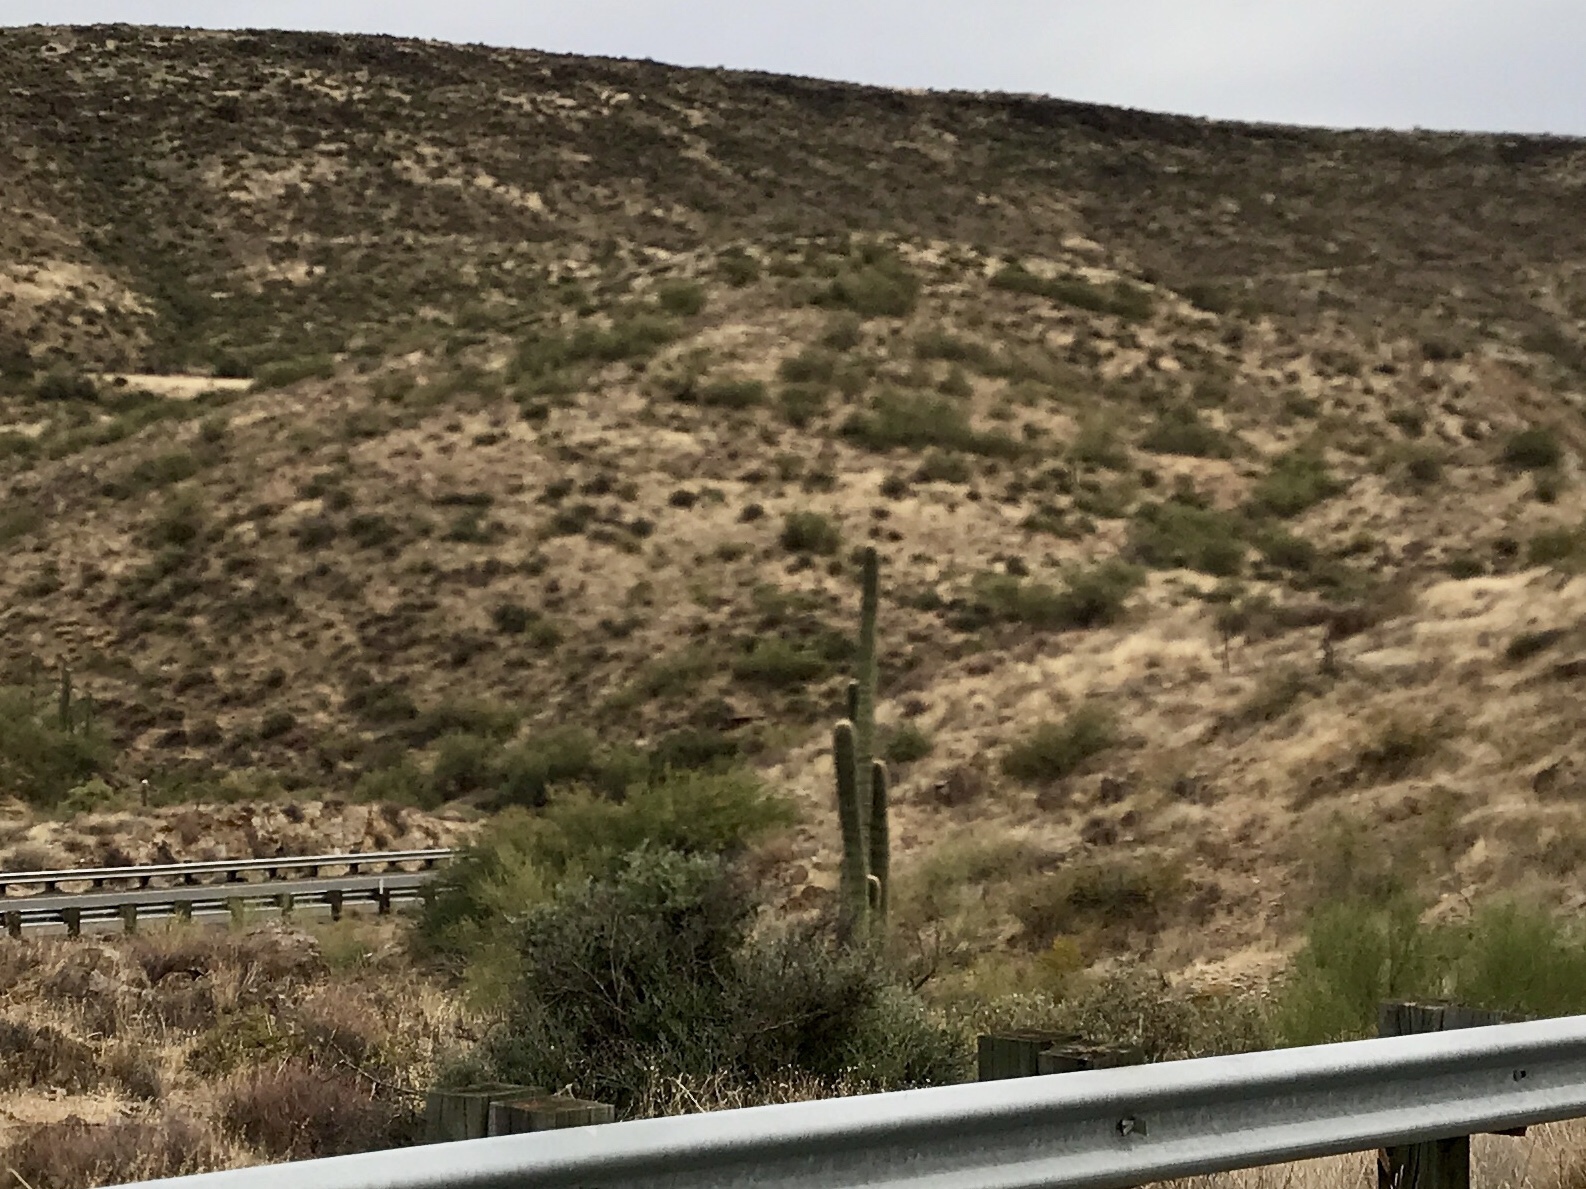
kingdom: Plantae
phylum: Tracheophyta
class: Magnoliopsida
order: Caryophyllales
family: Cactaceae
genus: Carnegiea
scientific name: Carnegiea gigantea
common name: Saguaro
